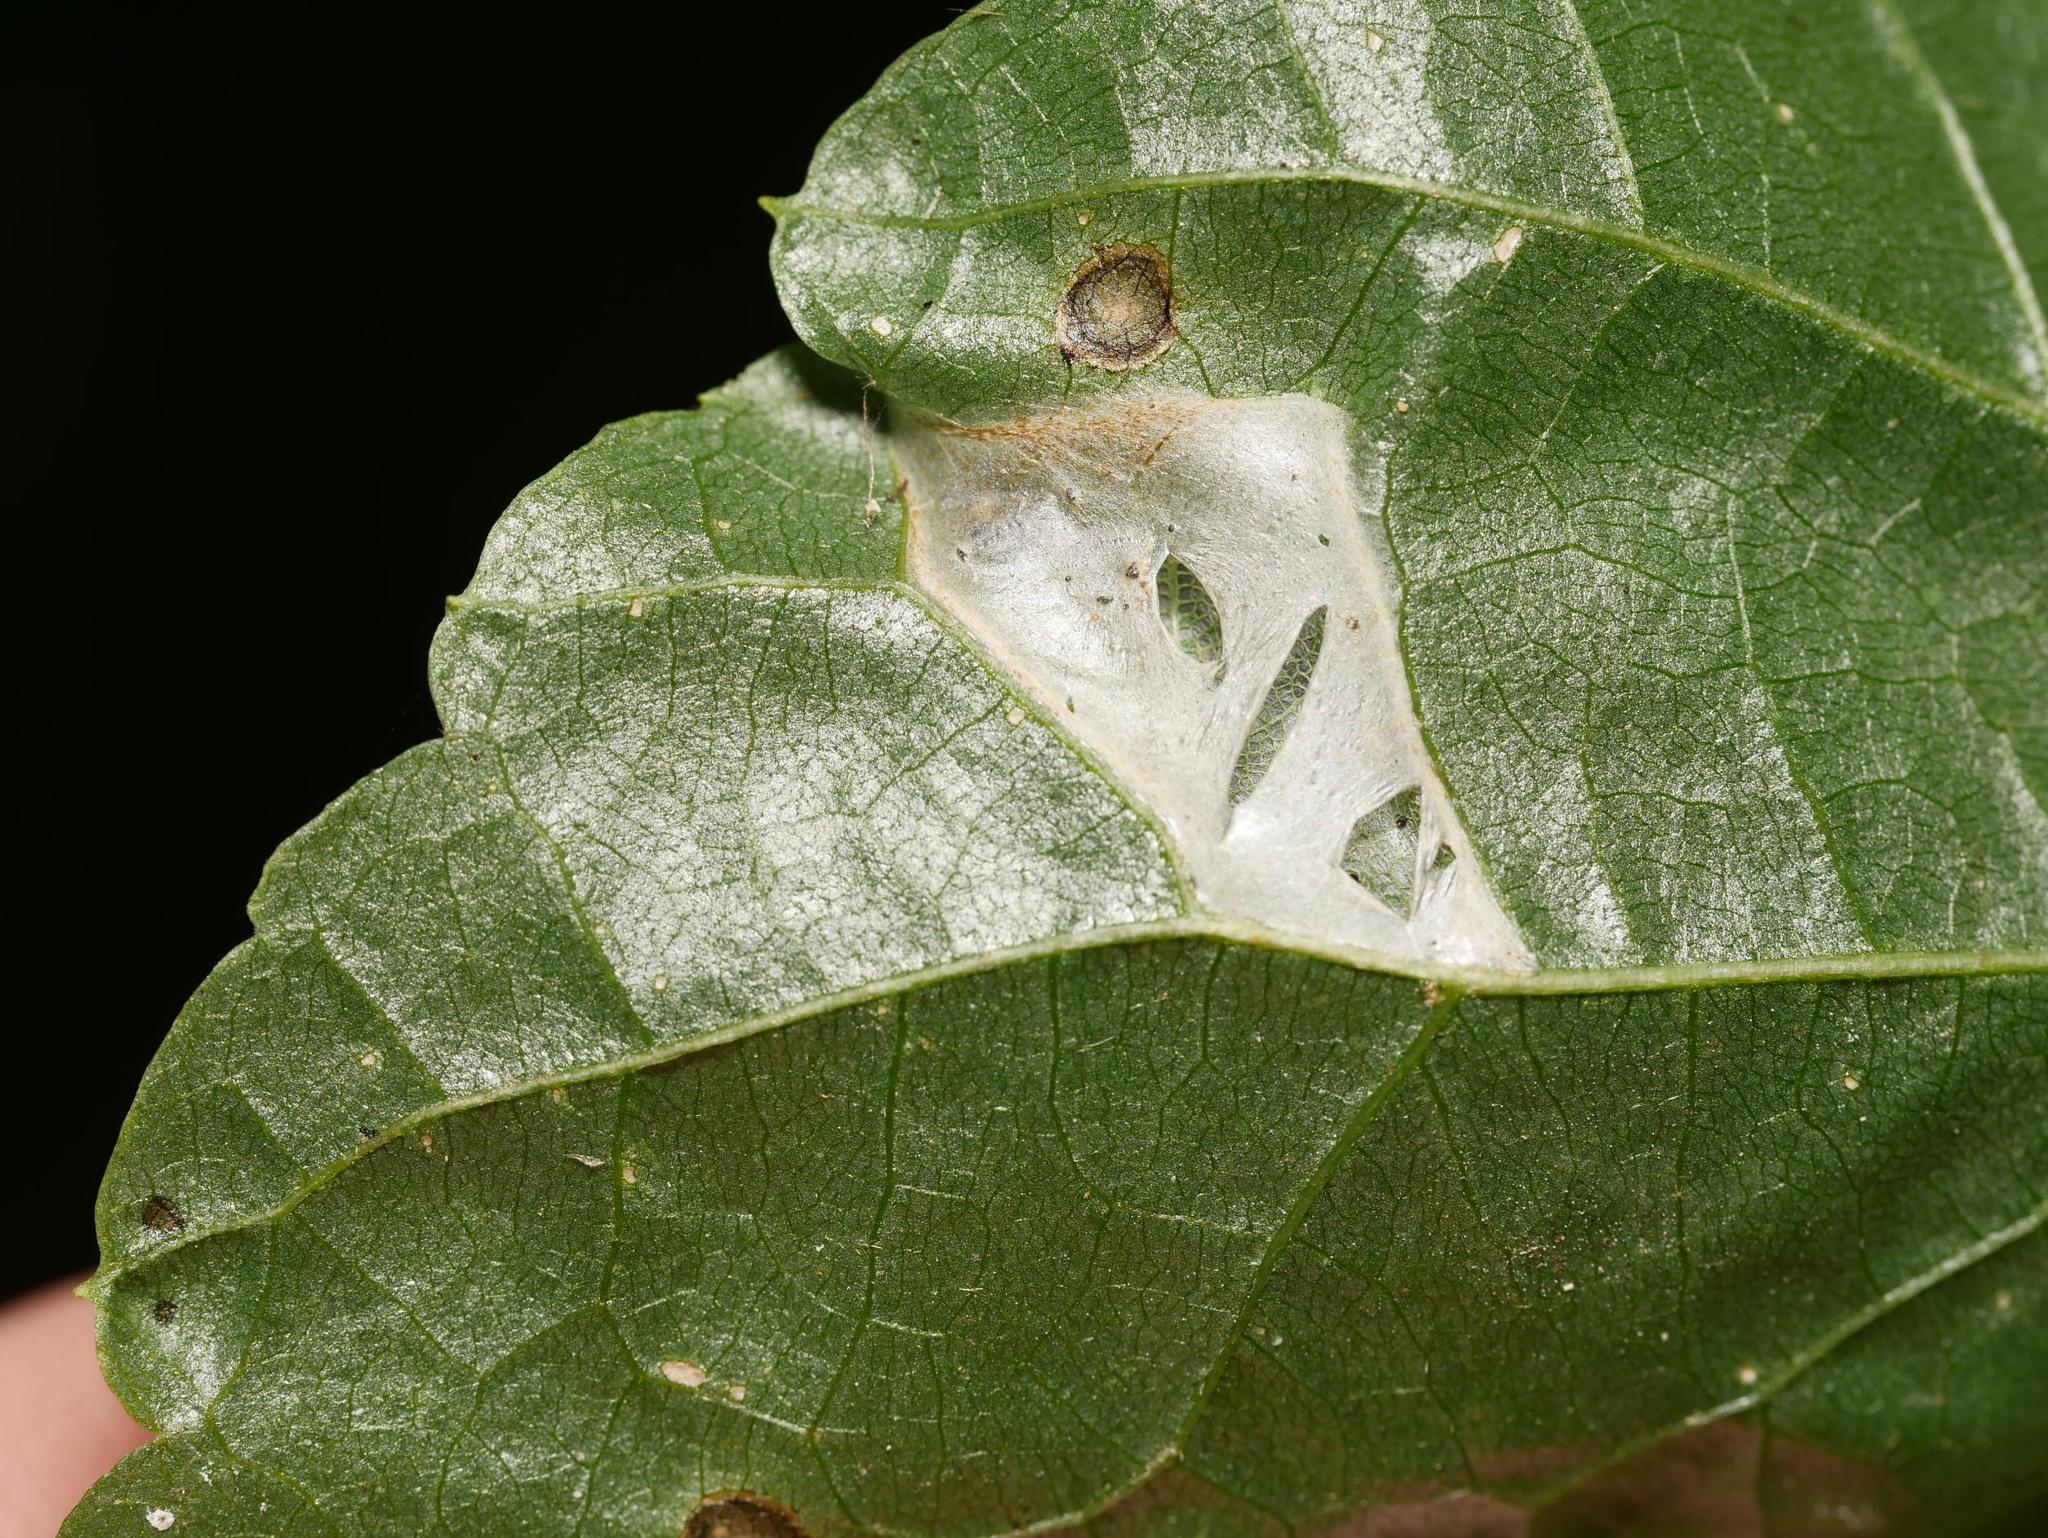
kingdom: Animalia
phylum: Arthropoda
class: Insecta
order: Lepidoptera
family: Gracillariidae
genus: Phyllonorycter
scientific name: Phyllonorycter issikii
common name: Linden midget
